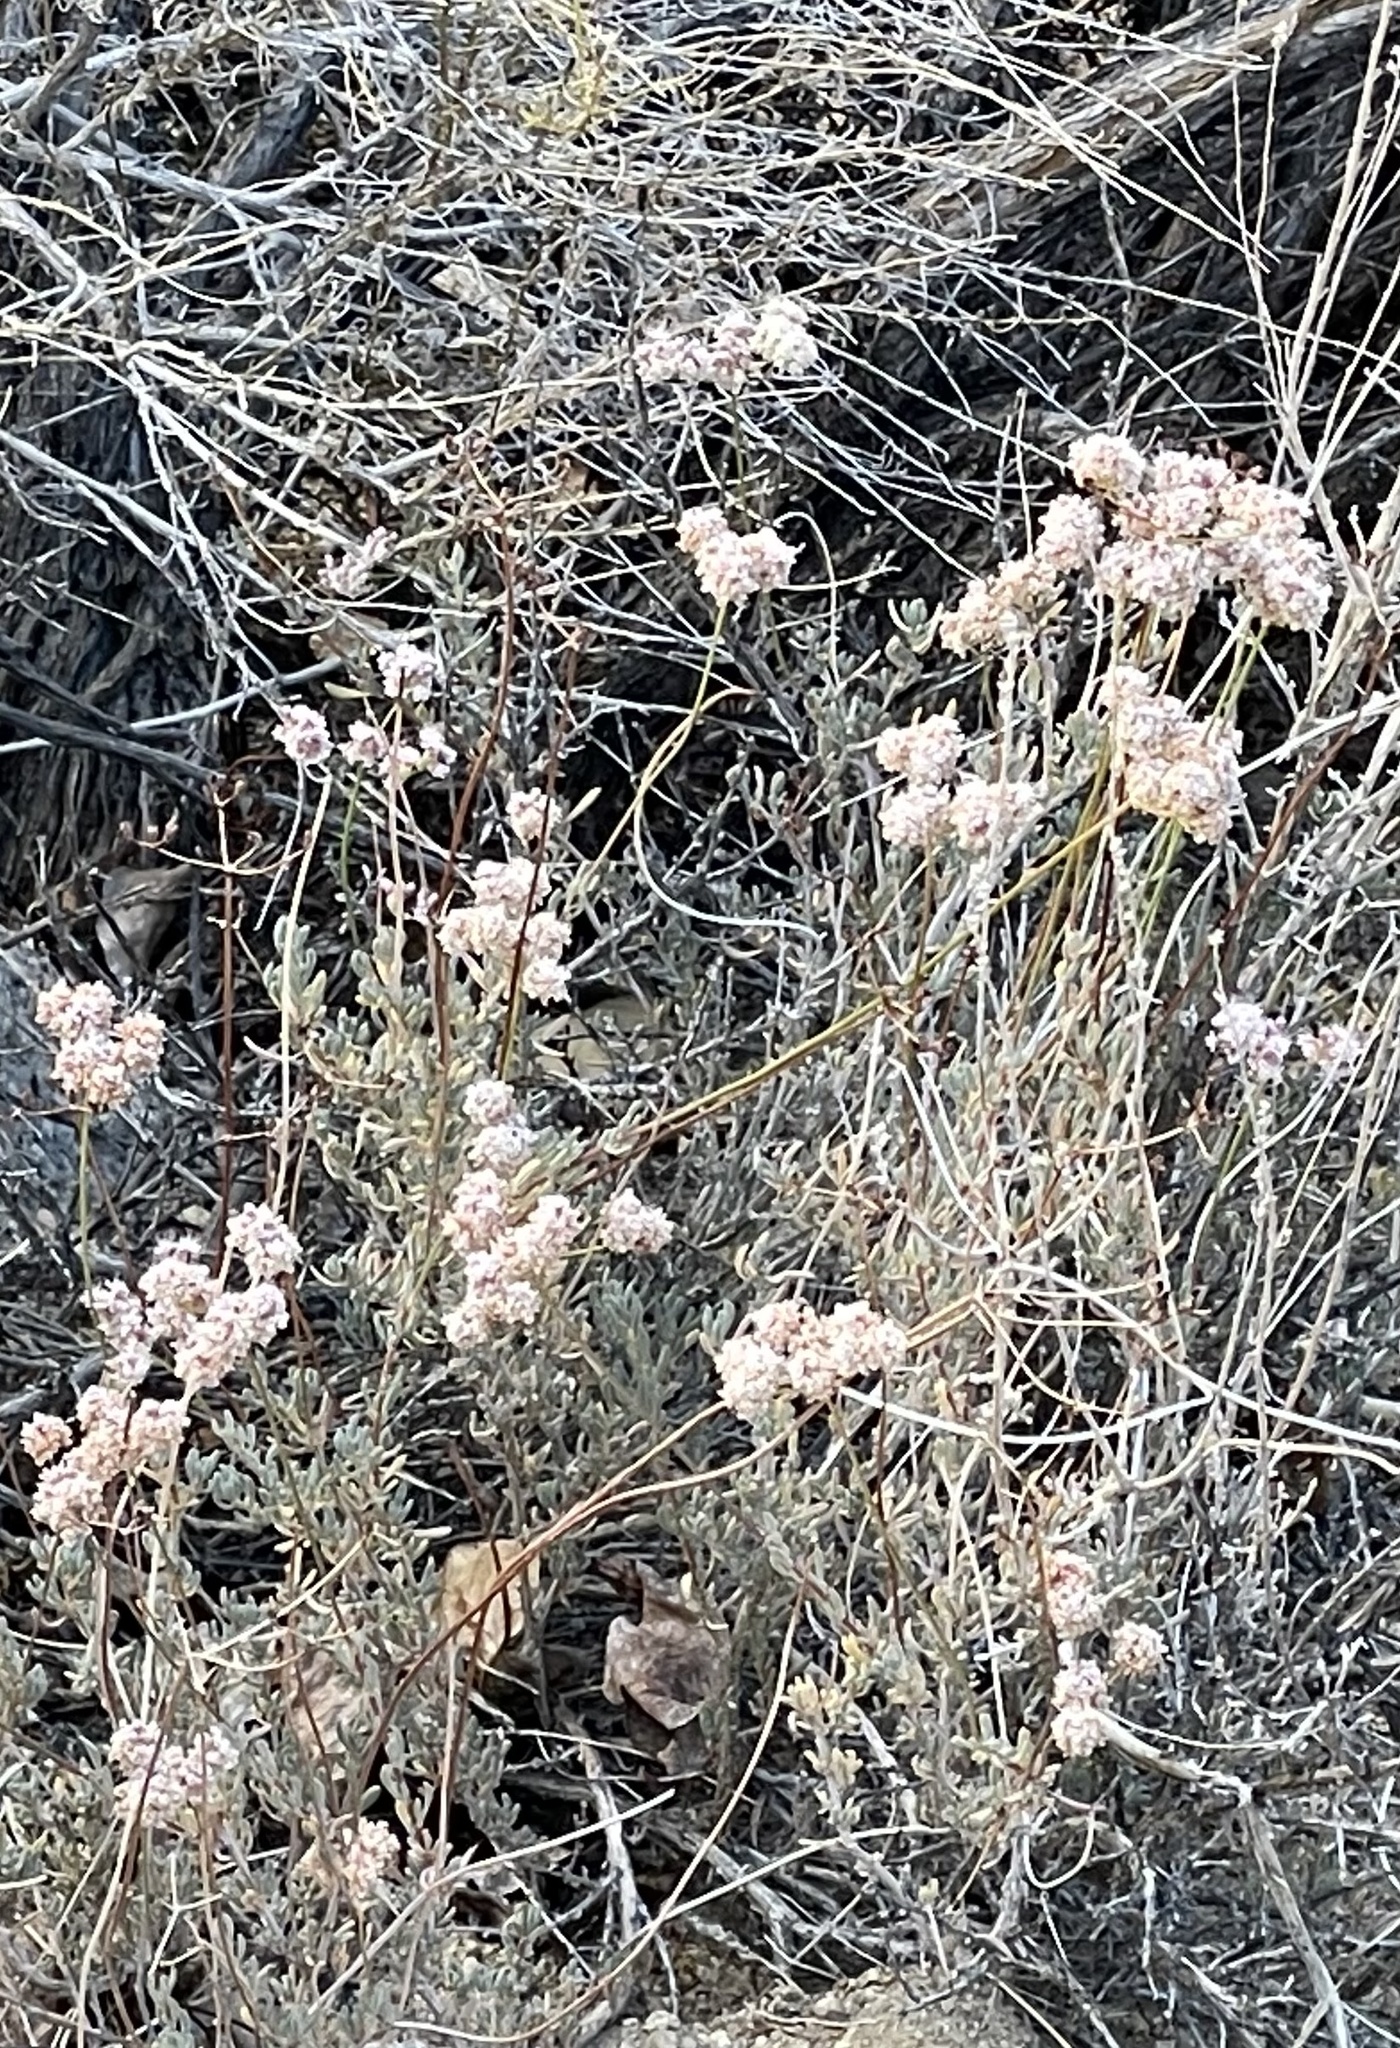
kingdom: Plantae
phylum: Tracheophyta
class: Magnoliopsida
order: Caryophyllales
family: Polygonaceae
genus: Eriogonum
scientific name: Eriogonum fasciculatum
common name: California wild buckwheat
